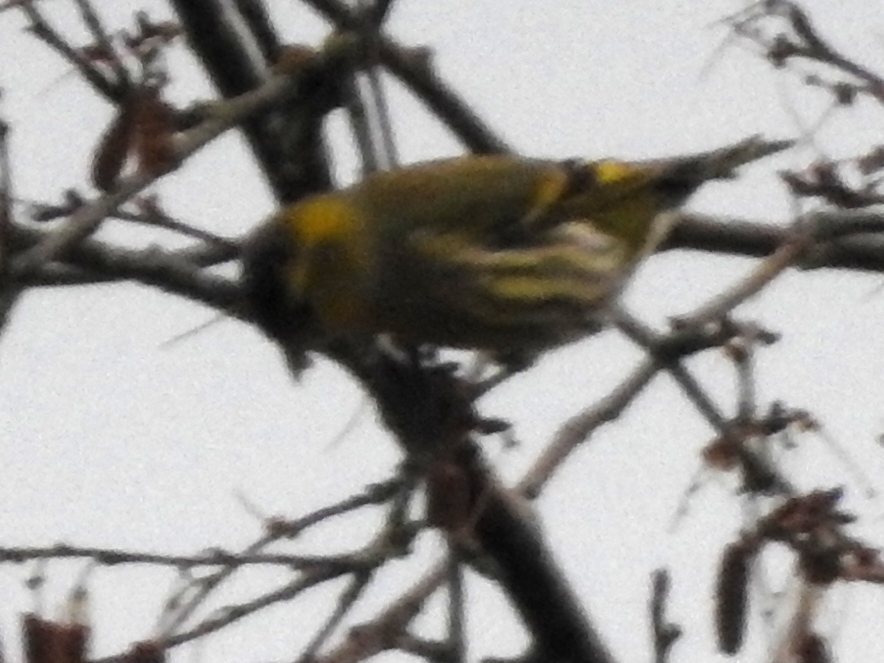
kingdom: Animalia
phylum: Chordata
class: Aves
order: Passeriformes
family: Fringillidae
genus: Spinus
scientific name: Spinus spinus
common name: Eurasian siskin
